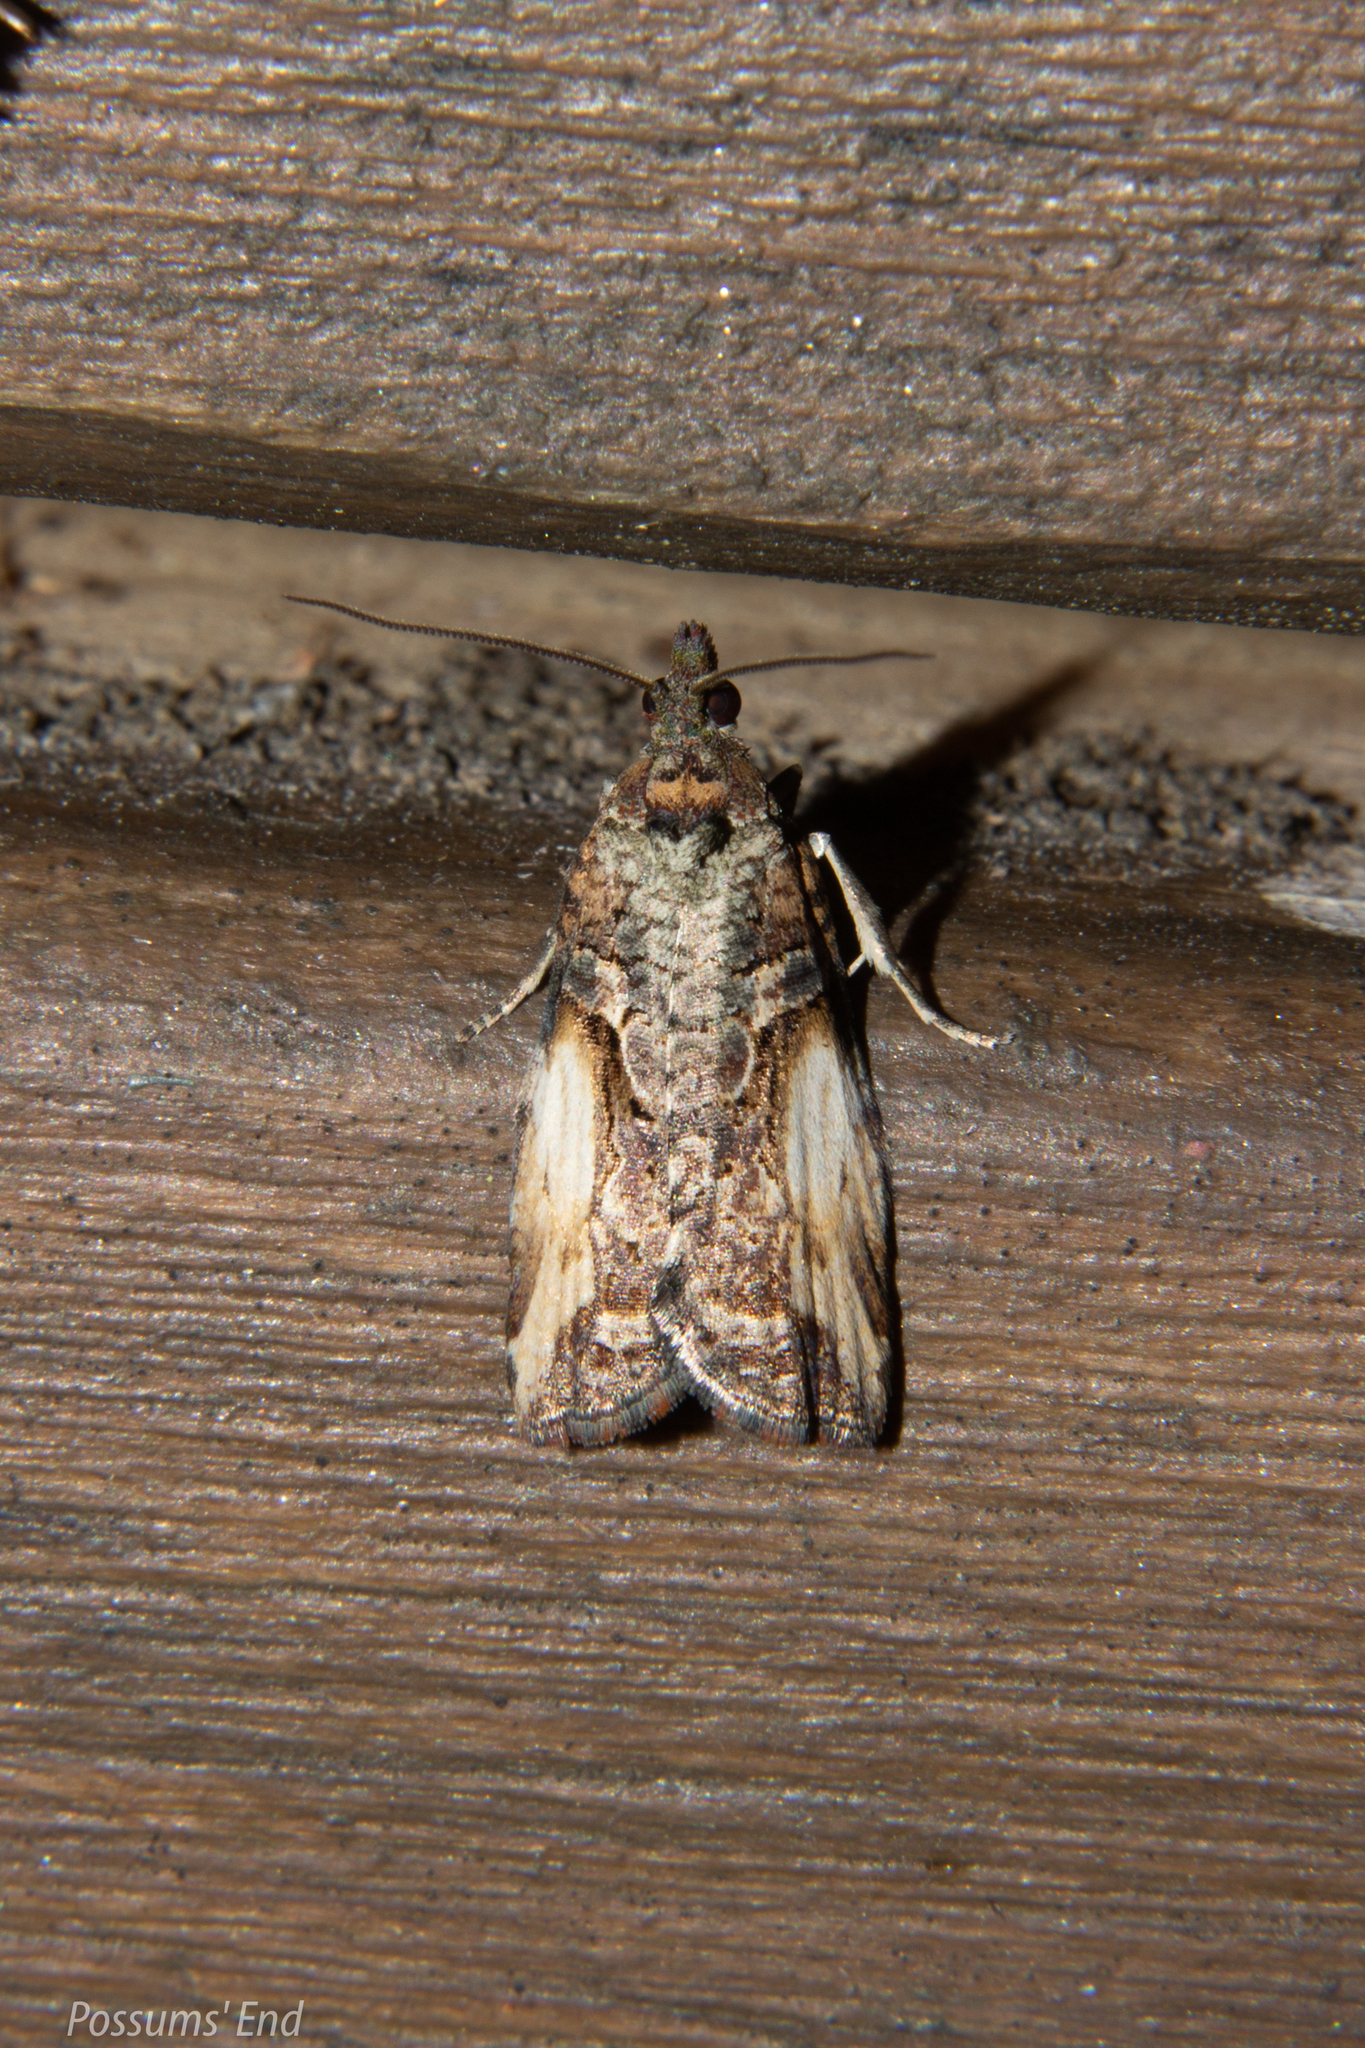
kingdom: Animalia
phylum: Arthropoda
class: Insecta
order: Lepidoptera
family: Tortricidae
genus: Harmologa
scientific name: Harmologa scoliastis
